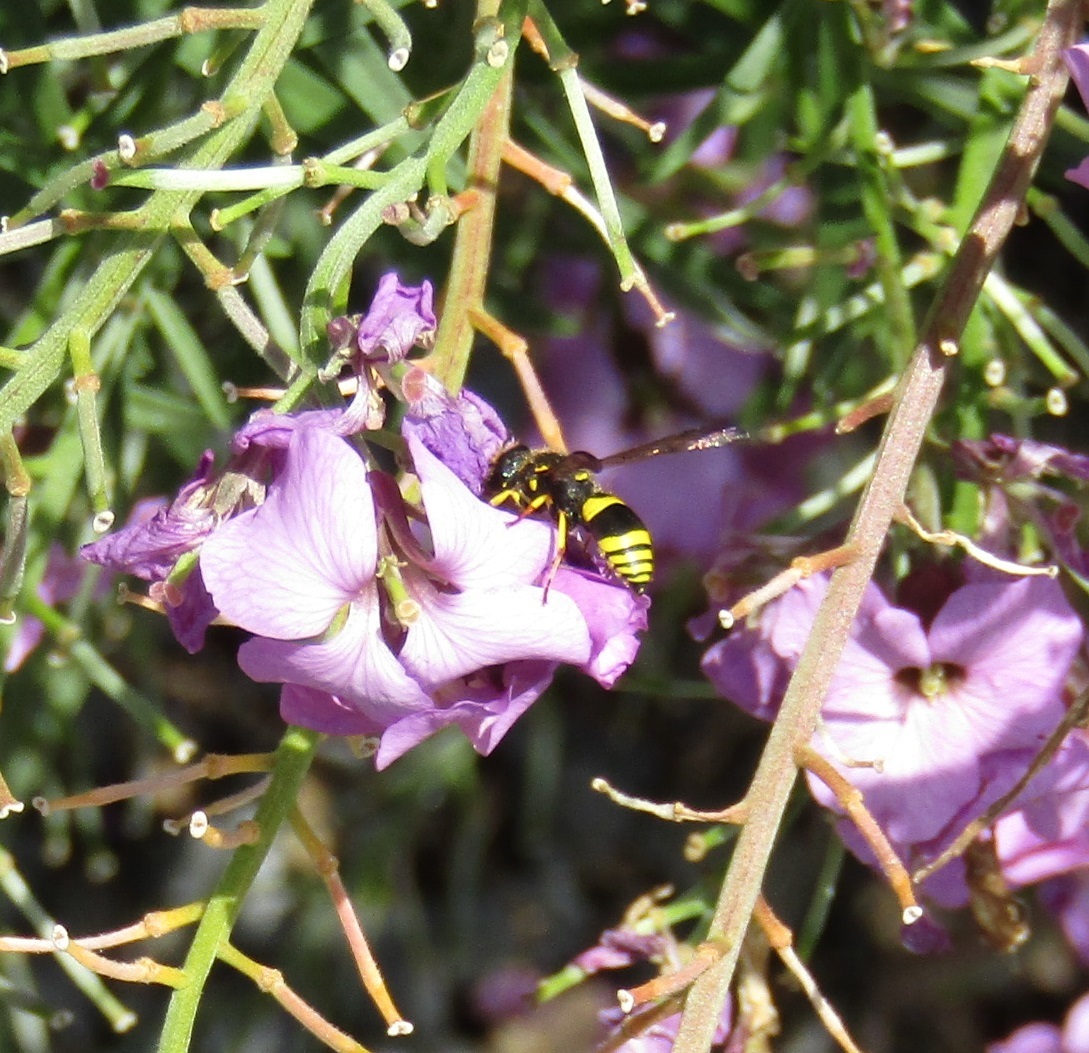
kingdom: Animalia
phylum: Arthropoda
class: Insecta
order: Hymenoptera
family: Vespidae
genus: Ancistrocerus
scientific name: Ancistrocerus gazella
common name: European tube wasp
